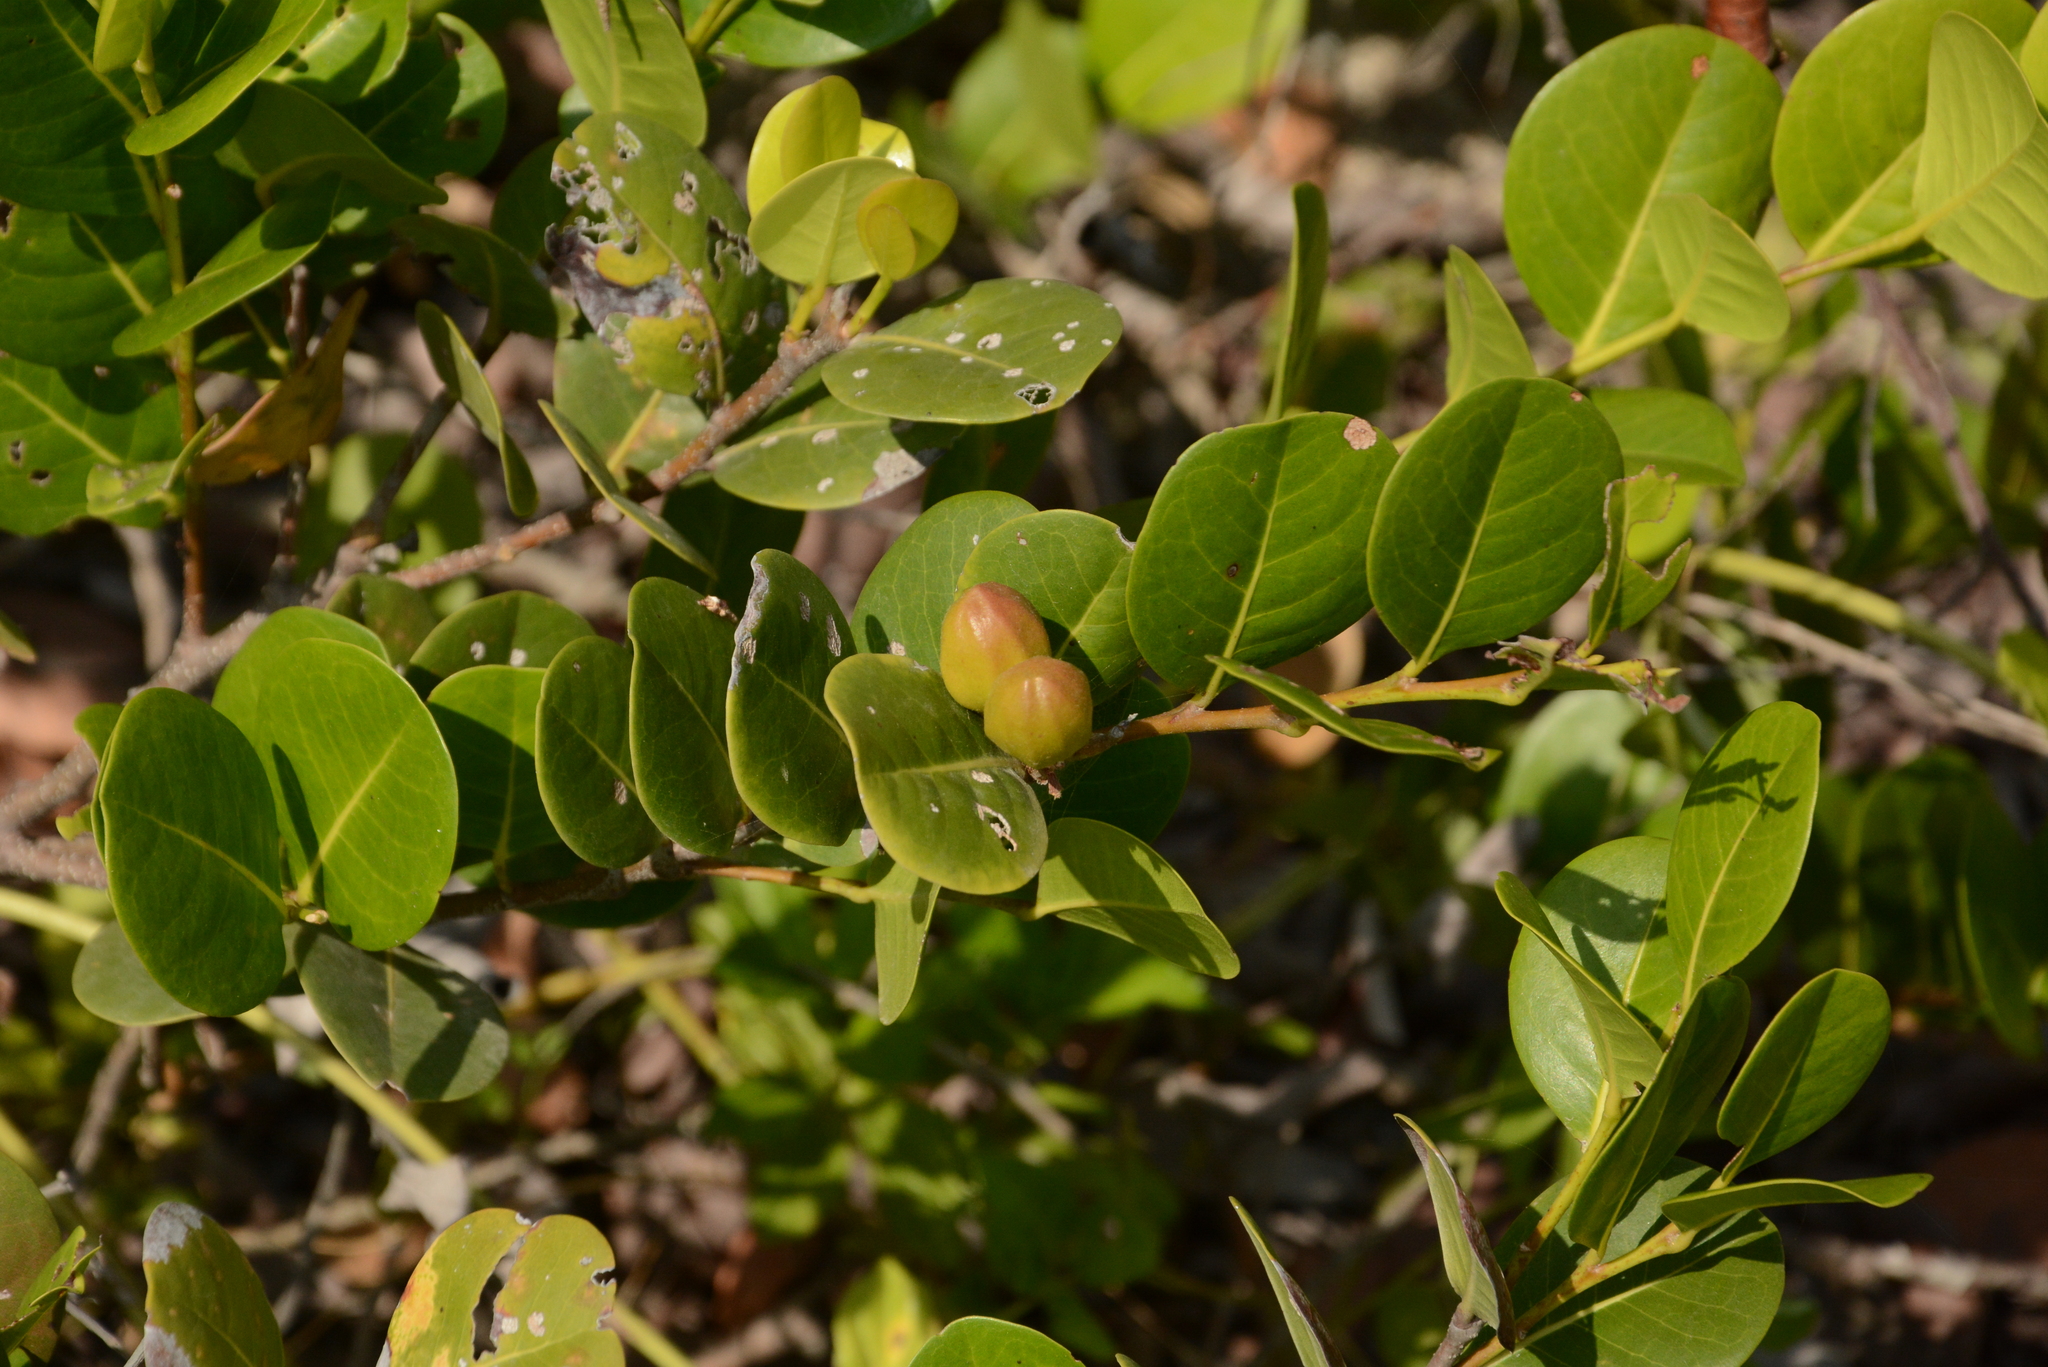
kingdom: Plantae
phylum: Tracheophyta
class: Magnoliopsida
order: Malpighiales
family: Chrysobalanaceae
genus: Chrysobalanus
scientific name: Chrysobalanus icaco
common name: Coco plum
